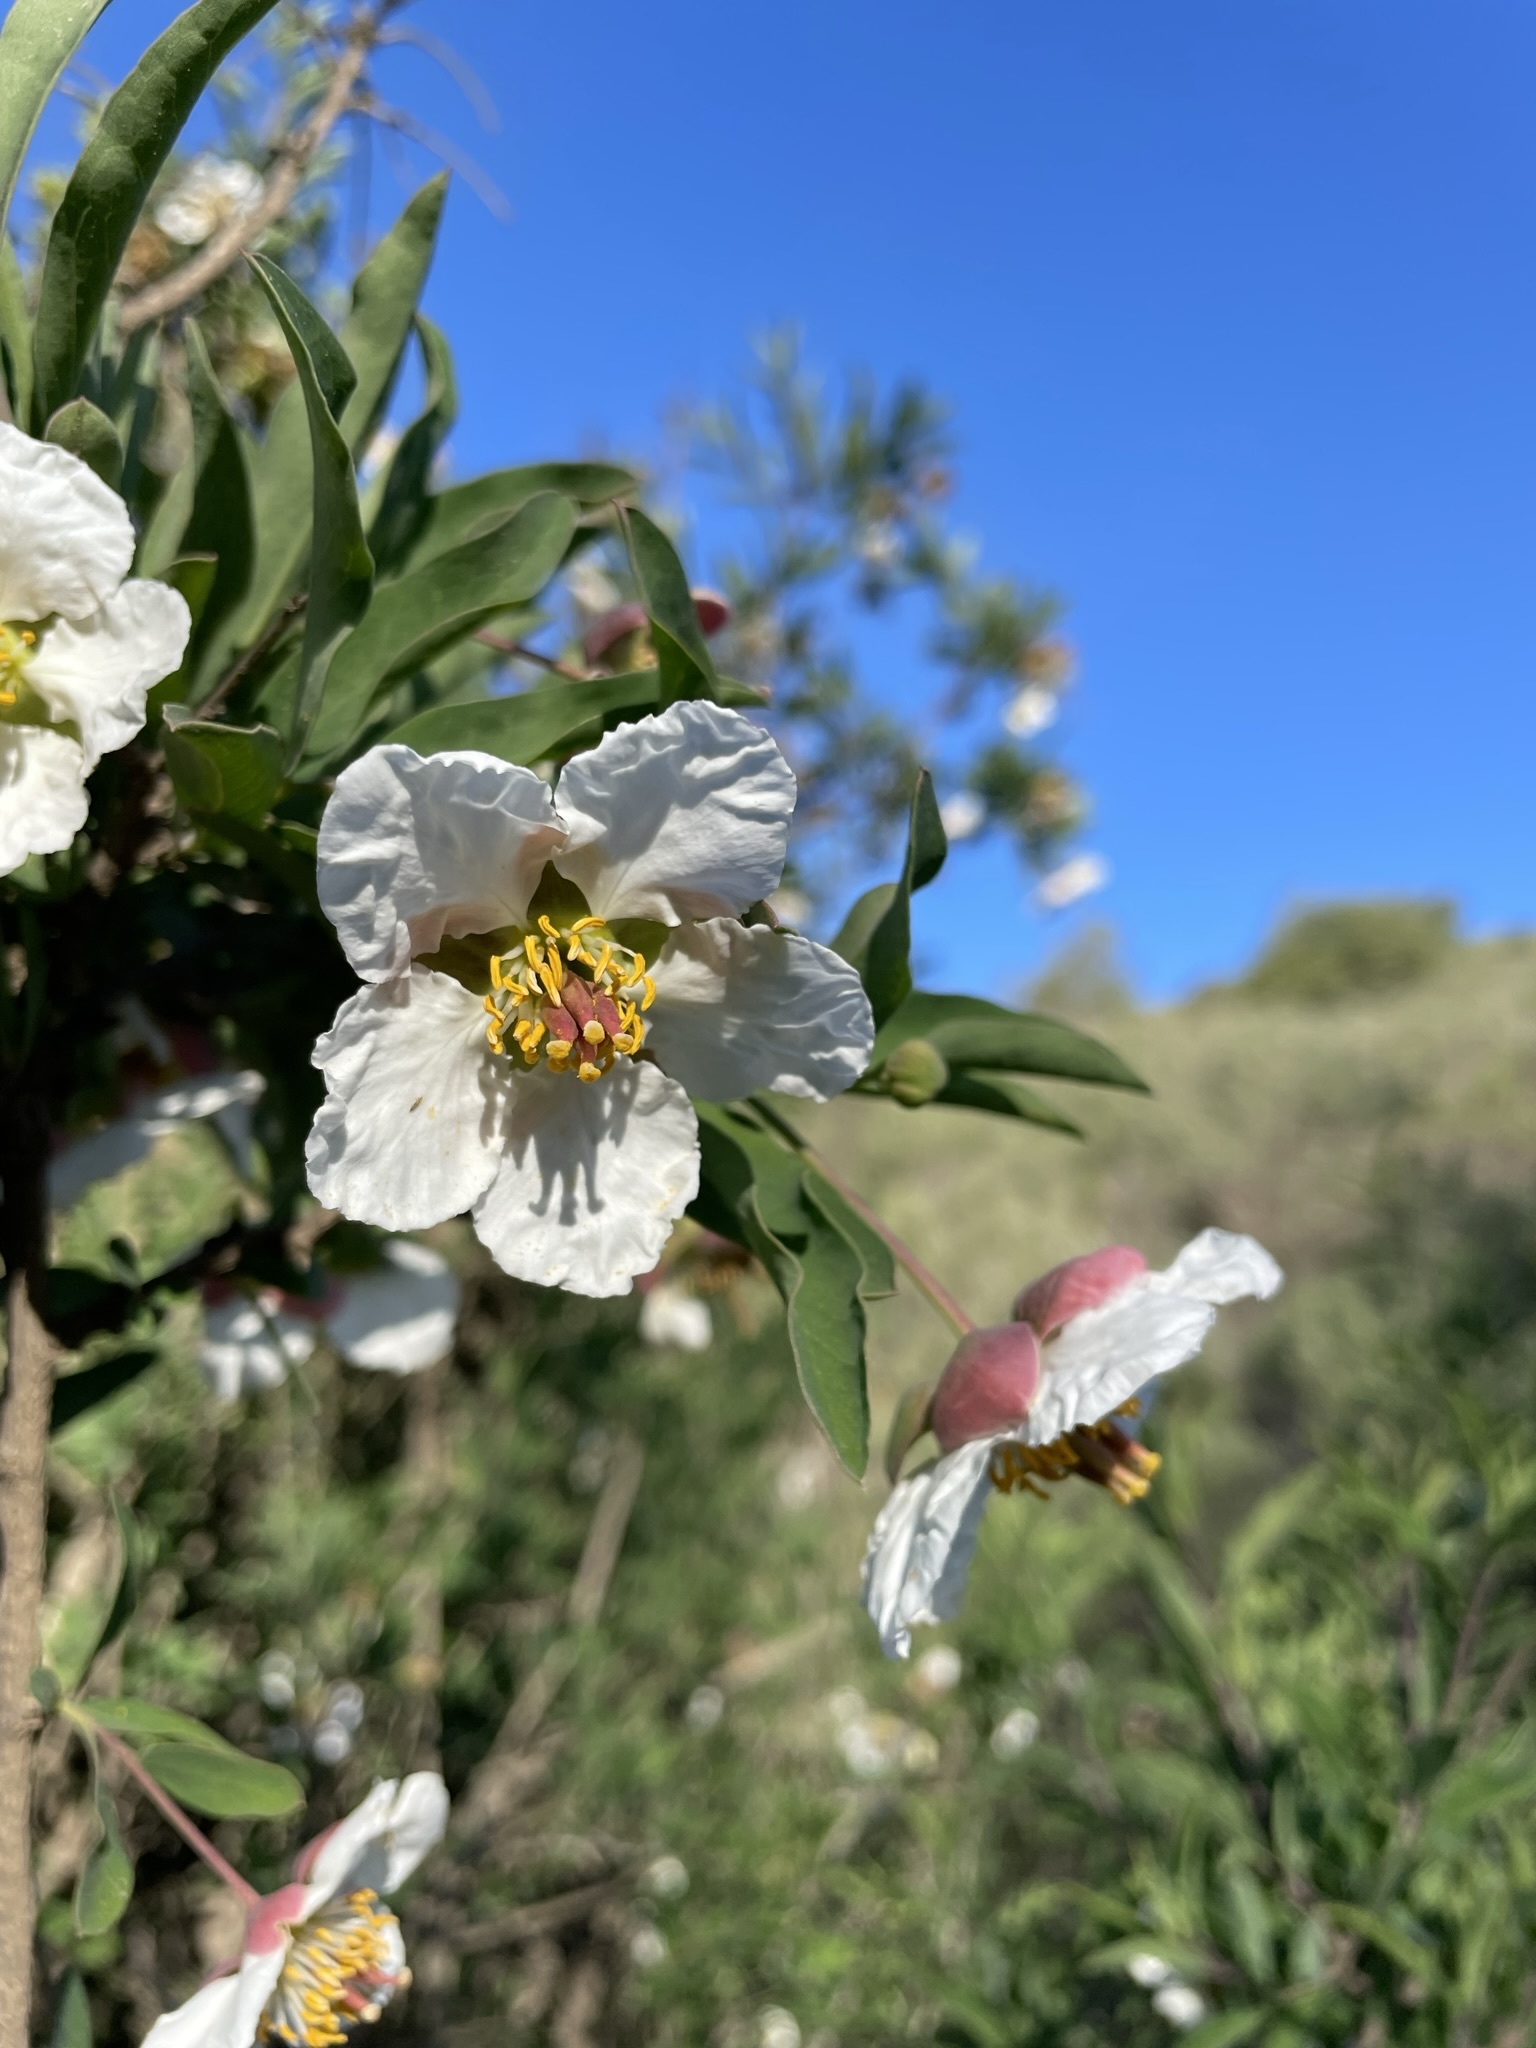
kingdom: Plantae
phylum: Tracheophyta
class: Magnoliopsida
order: Crossosomatales
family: Crossosomataceae
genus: Crossosoma
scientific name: Crossosoma californicum
